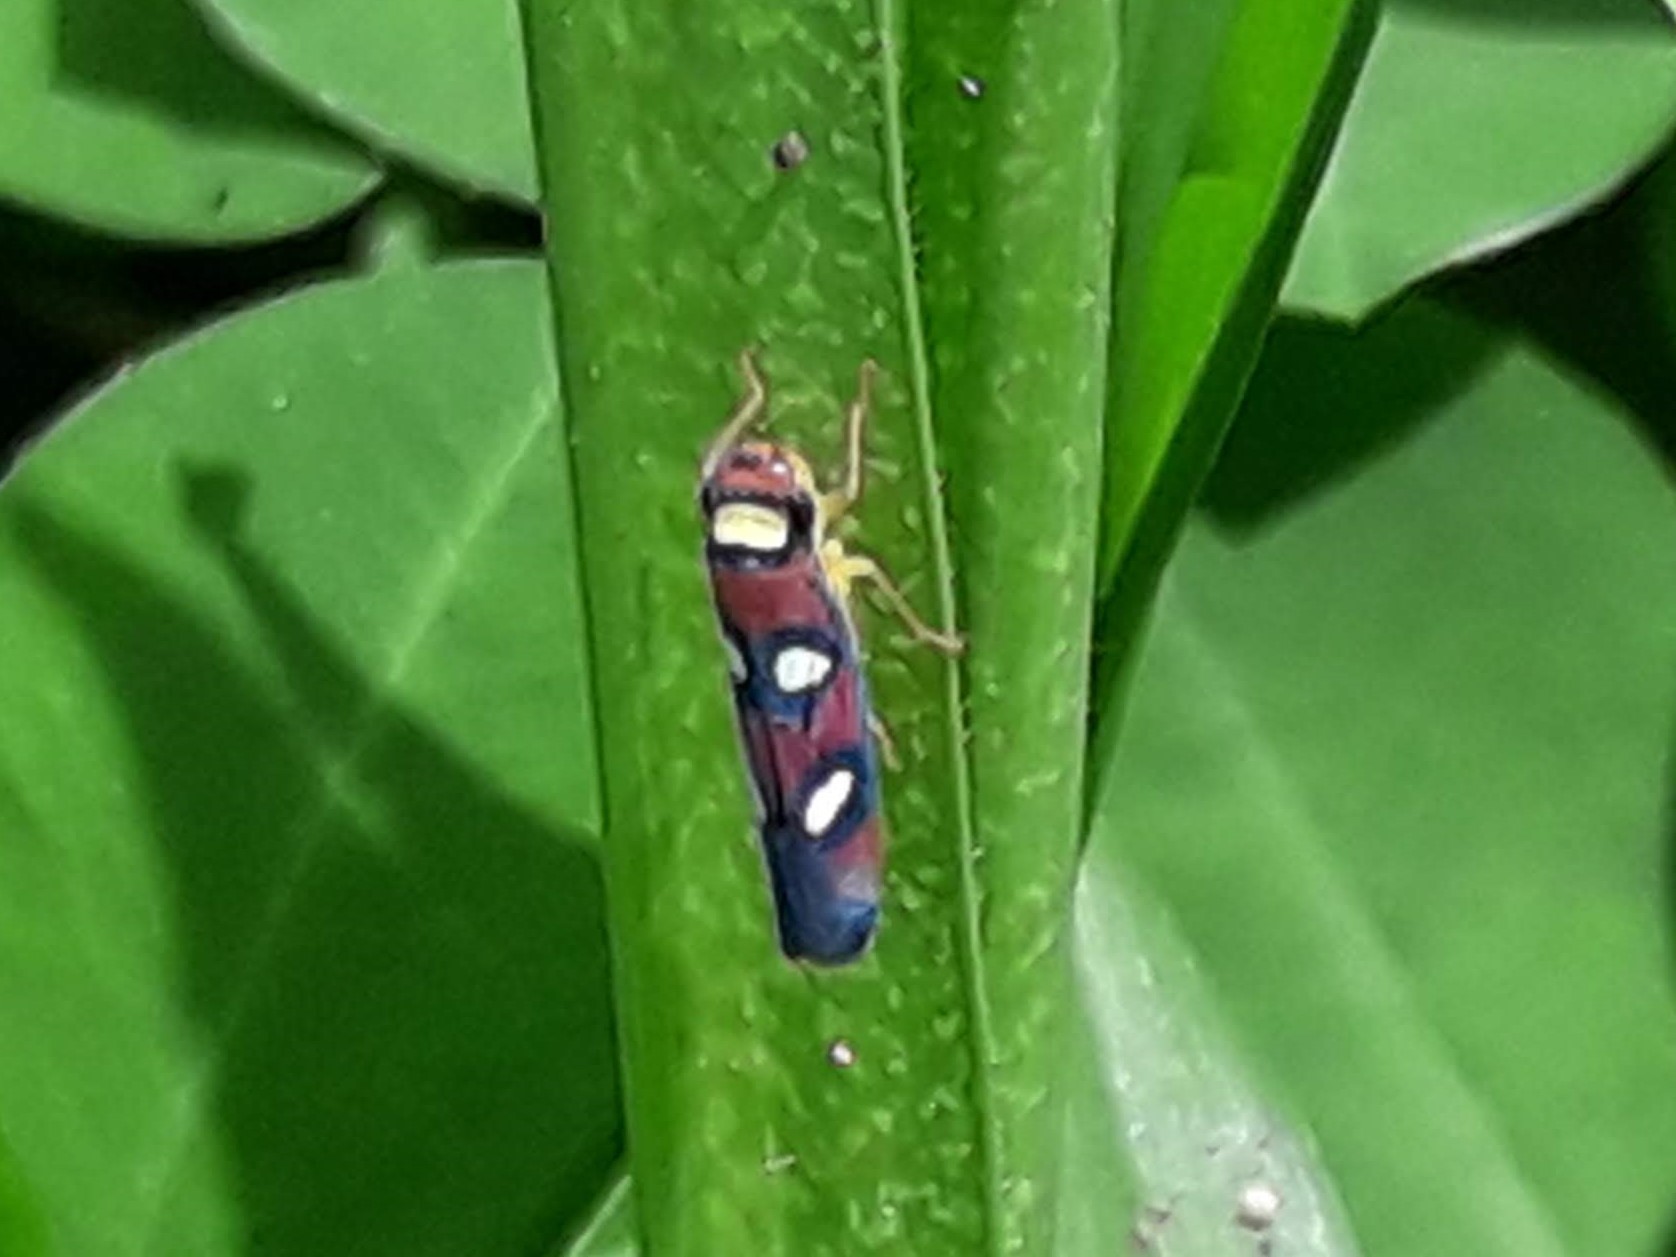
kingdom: Animalia
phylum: Arthropoda
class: Insecta
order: Hemiptera
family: Cicadellidae
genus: Erythrogonia
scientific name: Erythrogonia areolata
